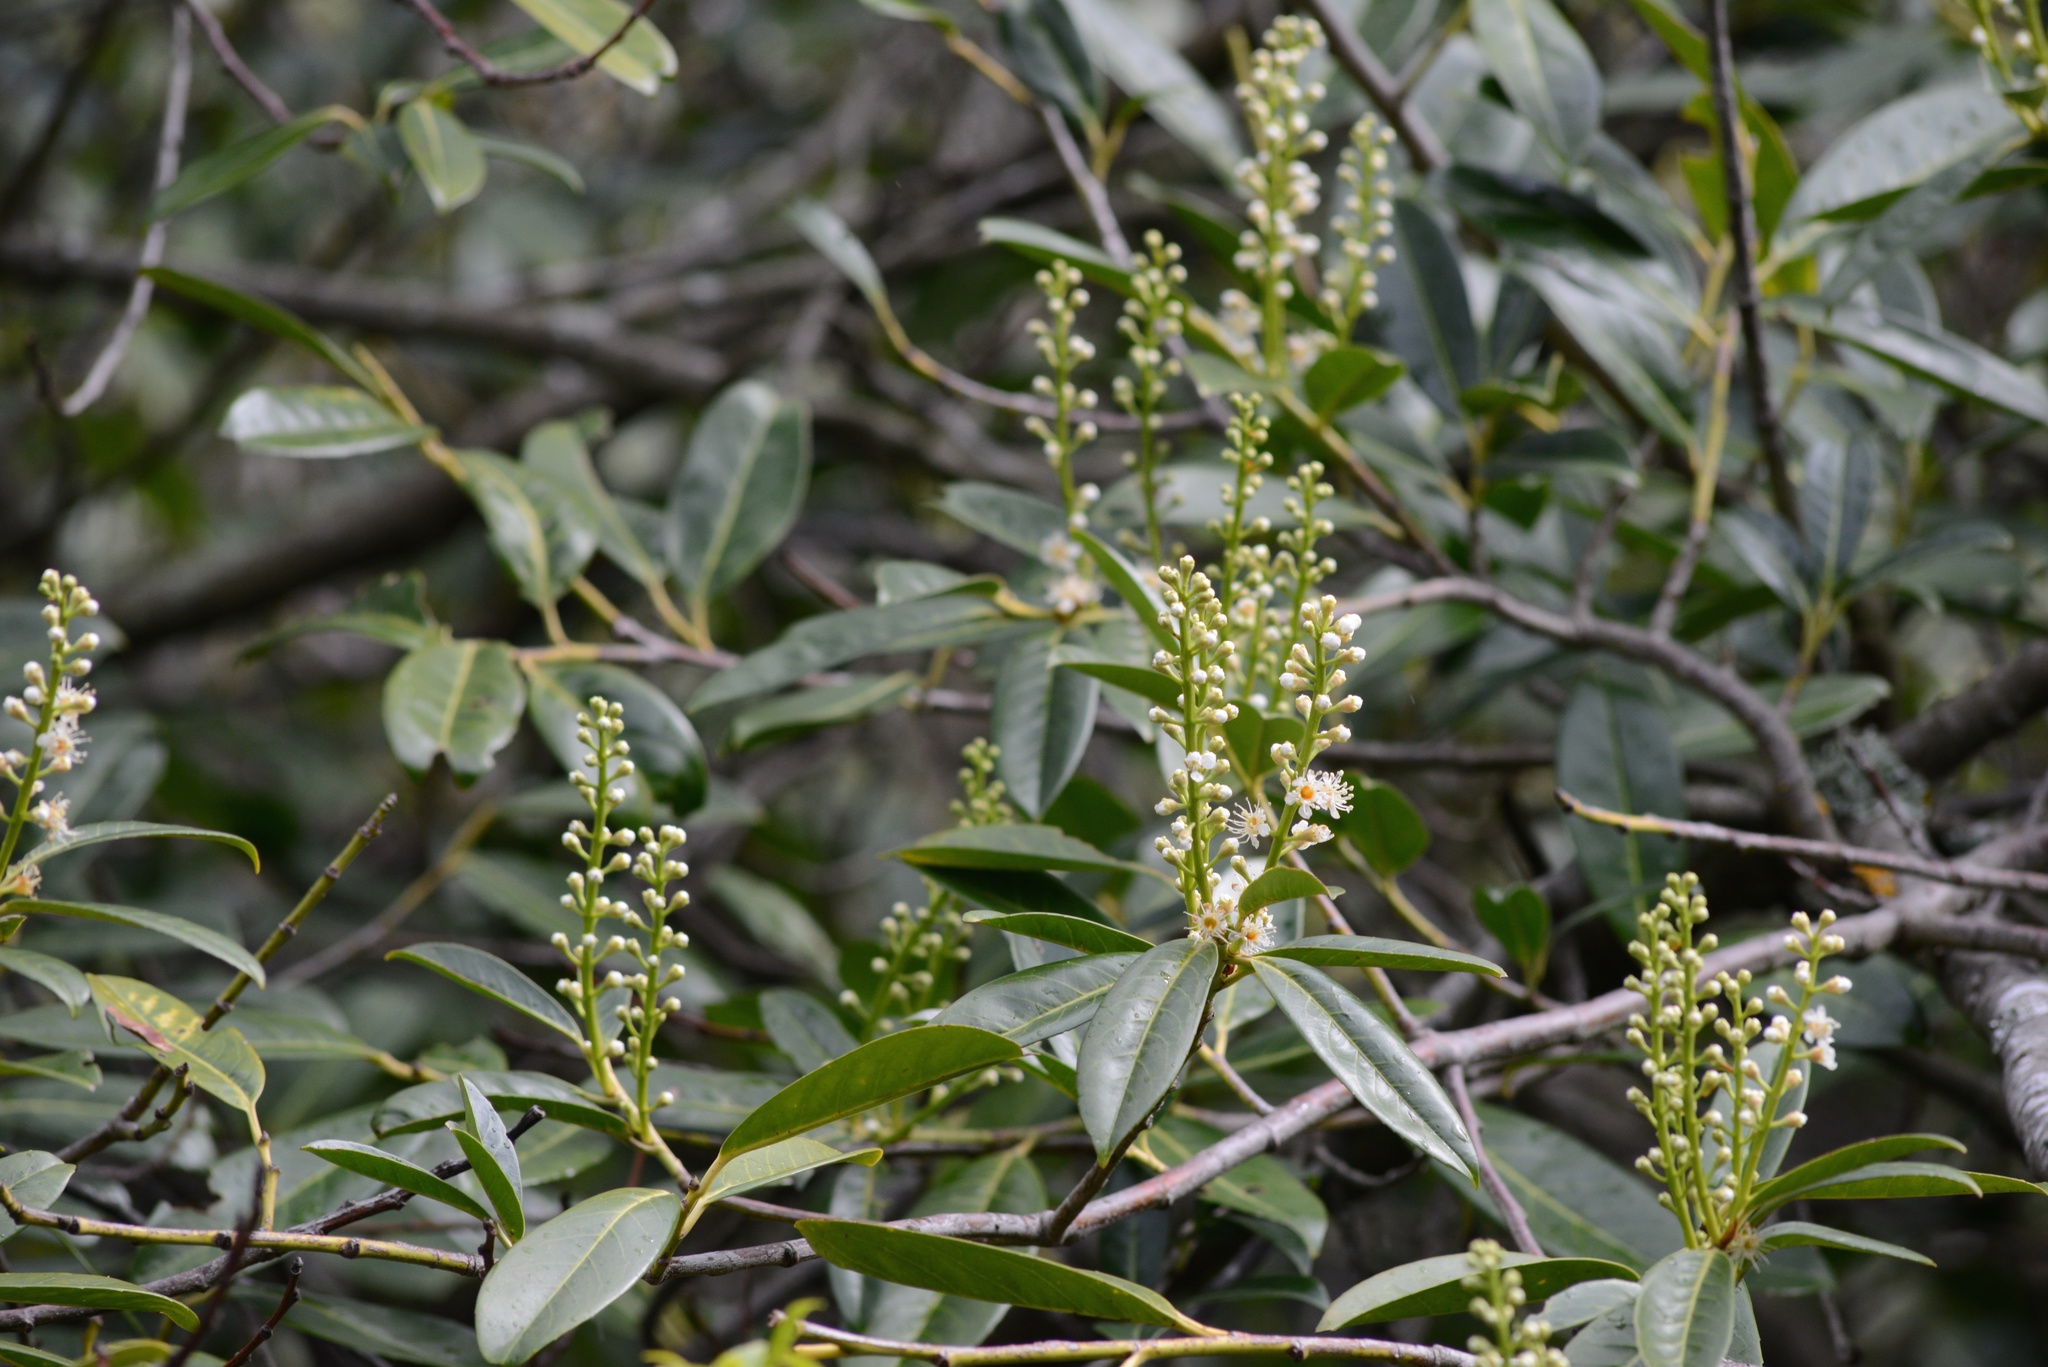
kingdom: Plantae
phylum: Tracheophyta
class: Magnoliopsida
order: Rosales
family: Rosaceae
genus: Prunus
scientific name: Prunus laurocerasus
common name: Cherry laurel
